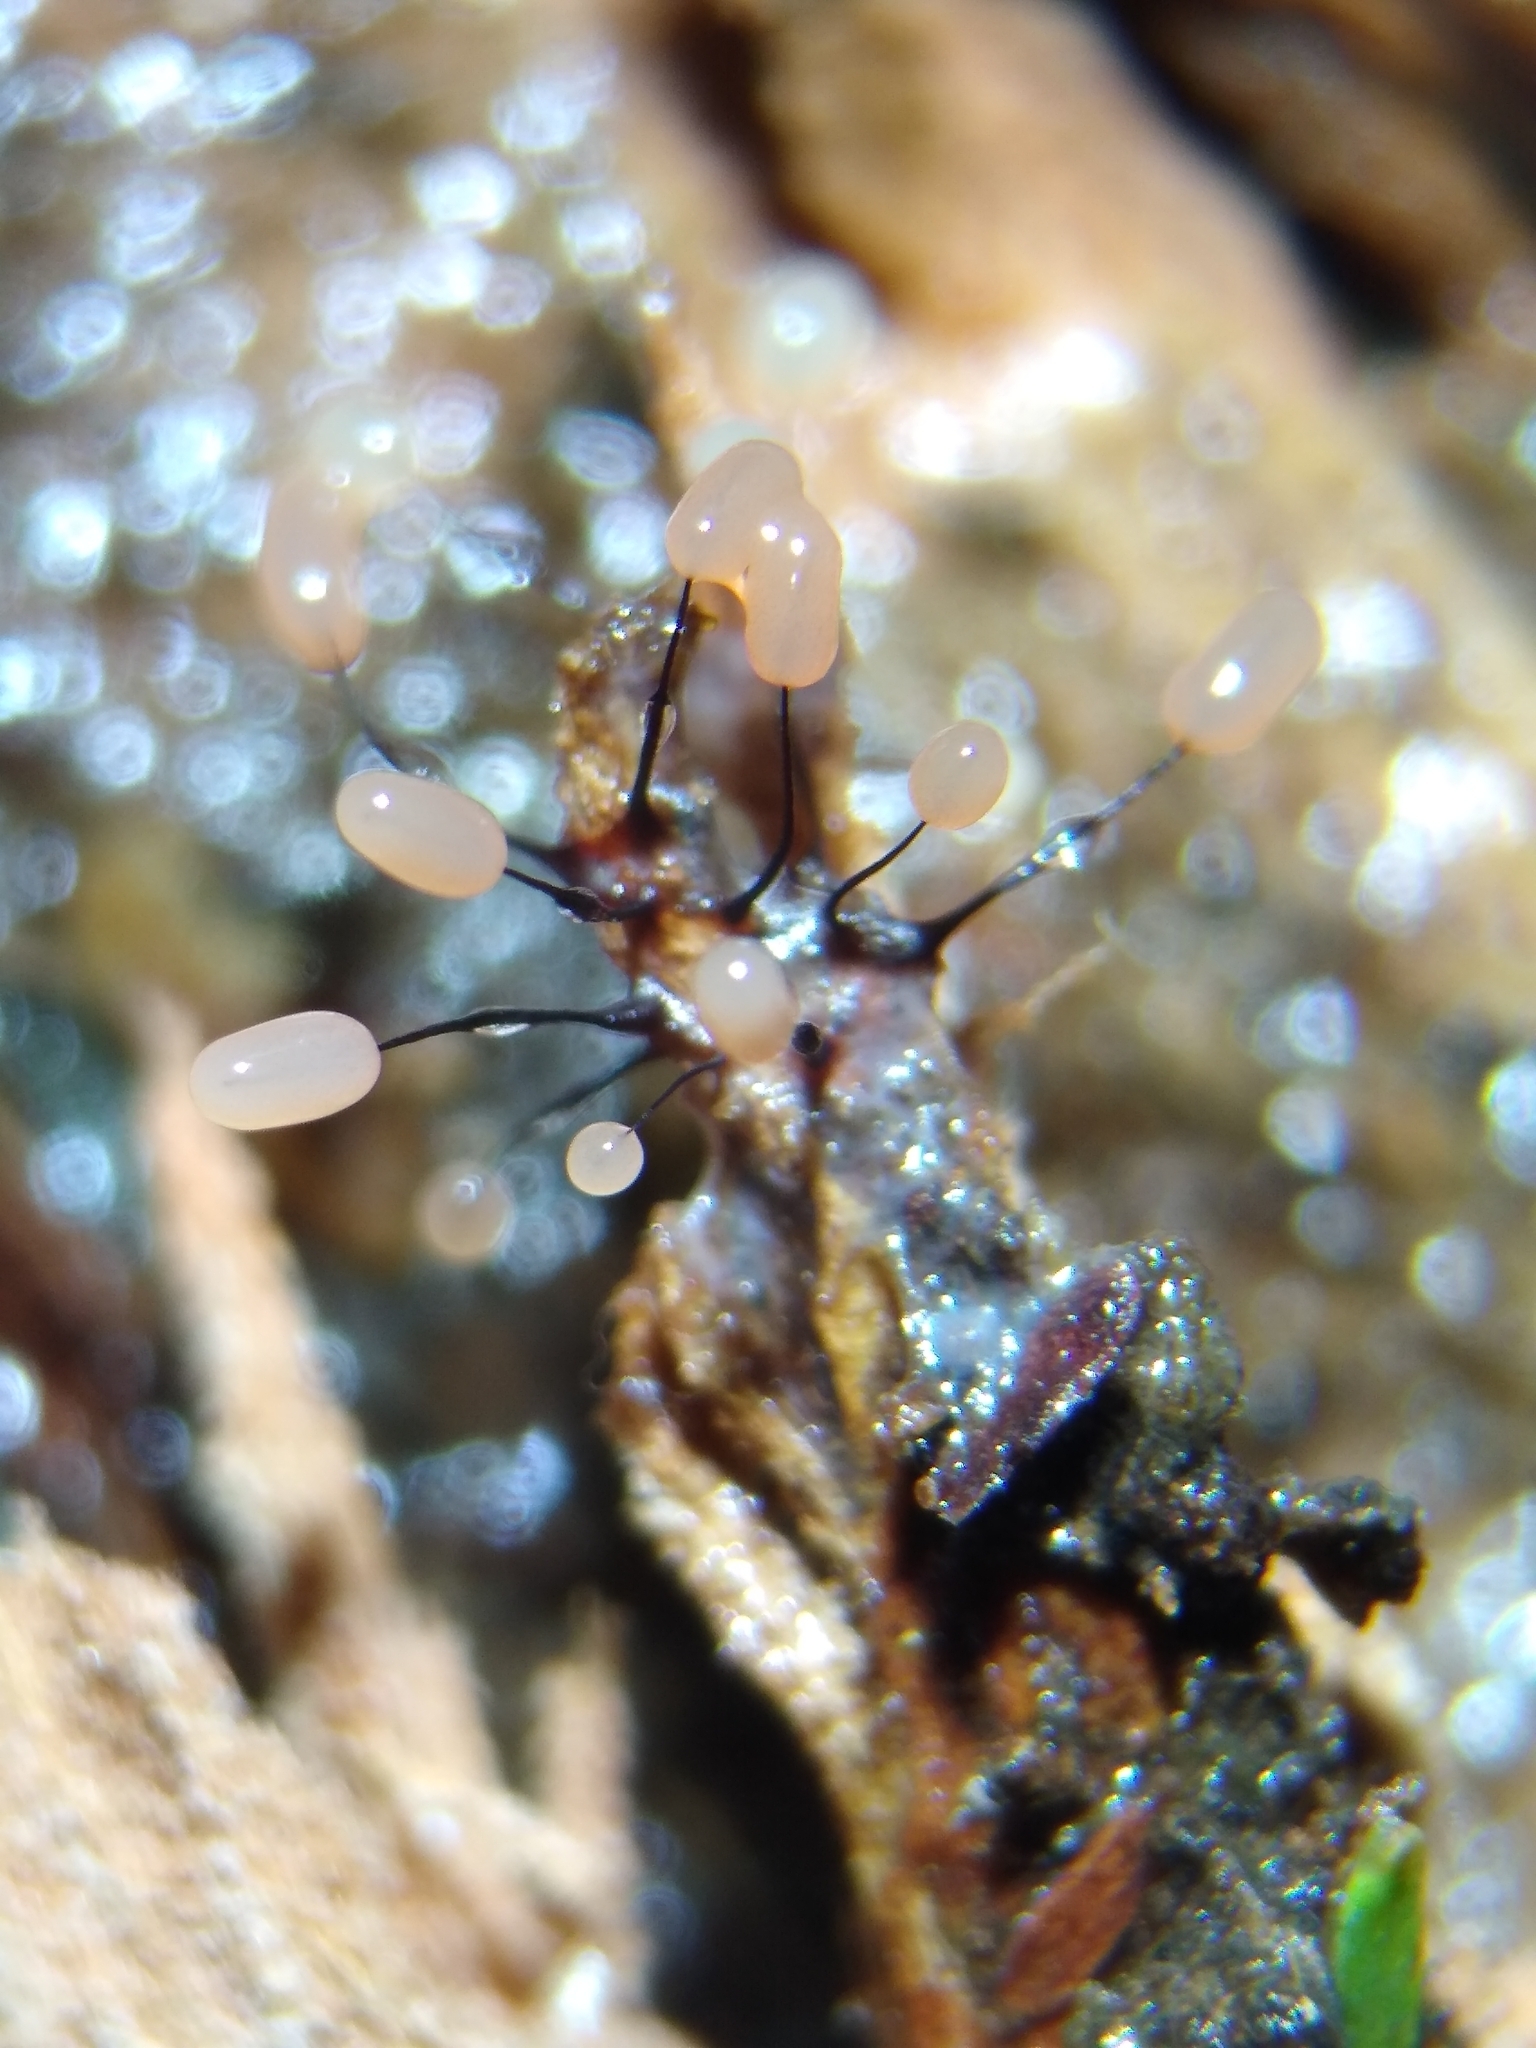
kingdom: Protozoa
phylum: Mycetozoa
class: Myxomycetes
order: Stemonitidales
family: Stemonitidaceae
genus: Comatricha
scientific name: Comatricha alta
